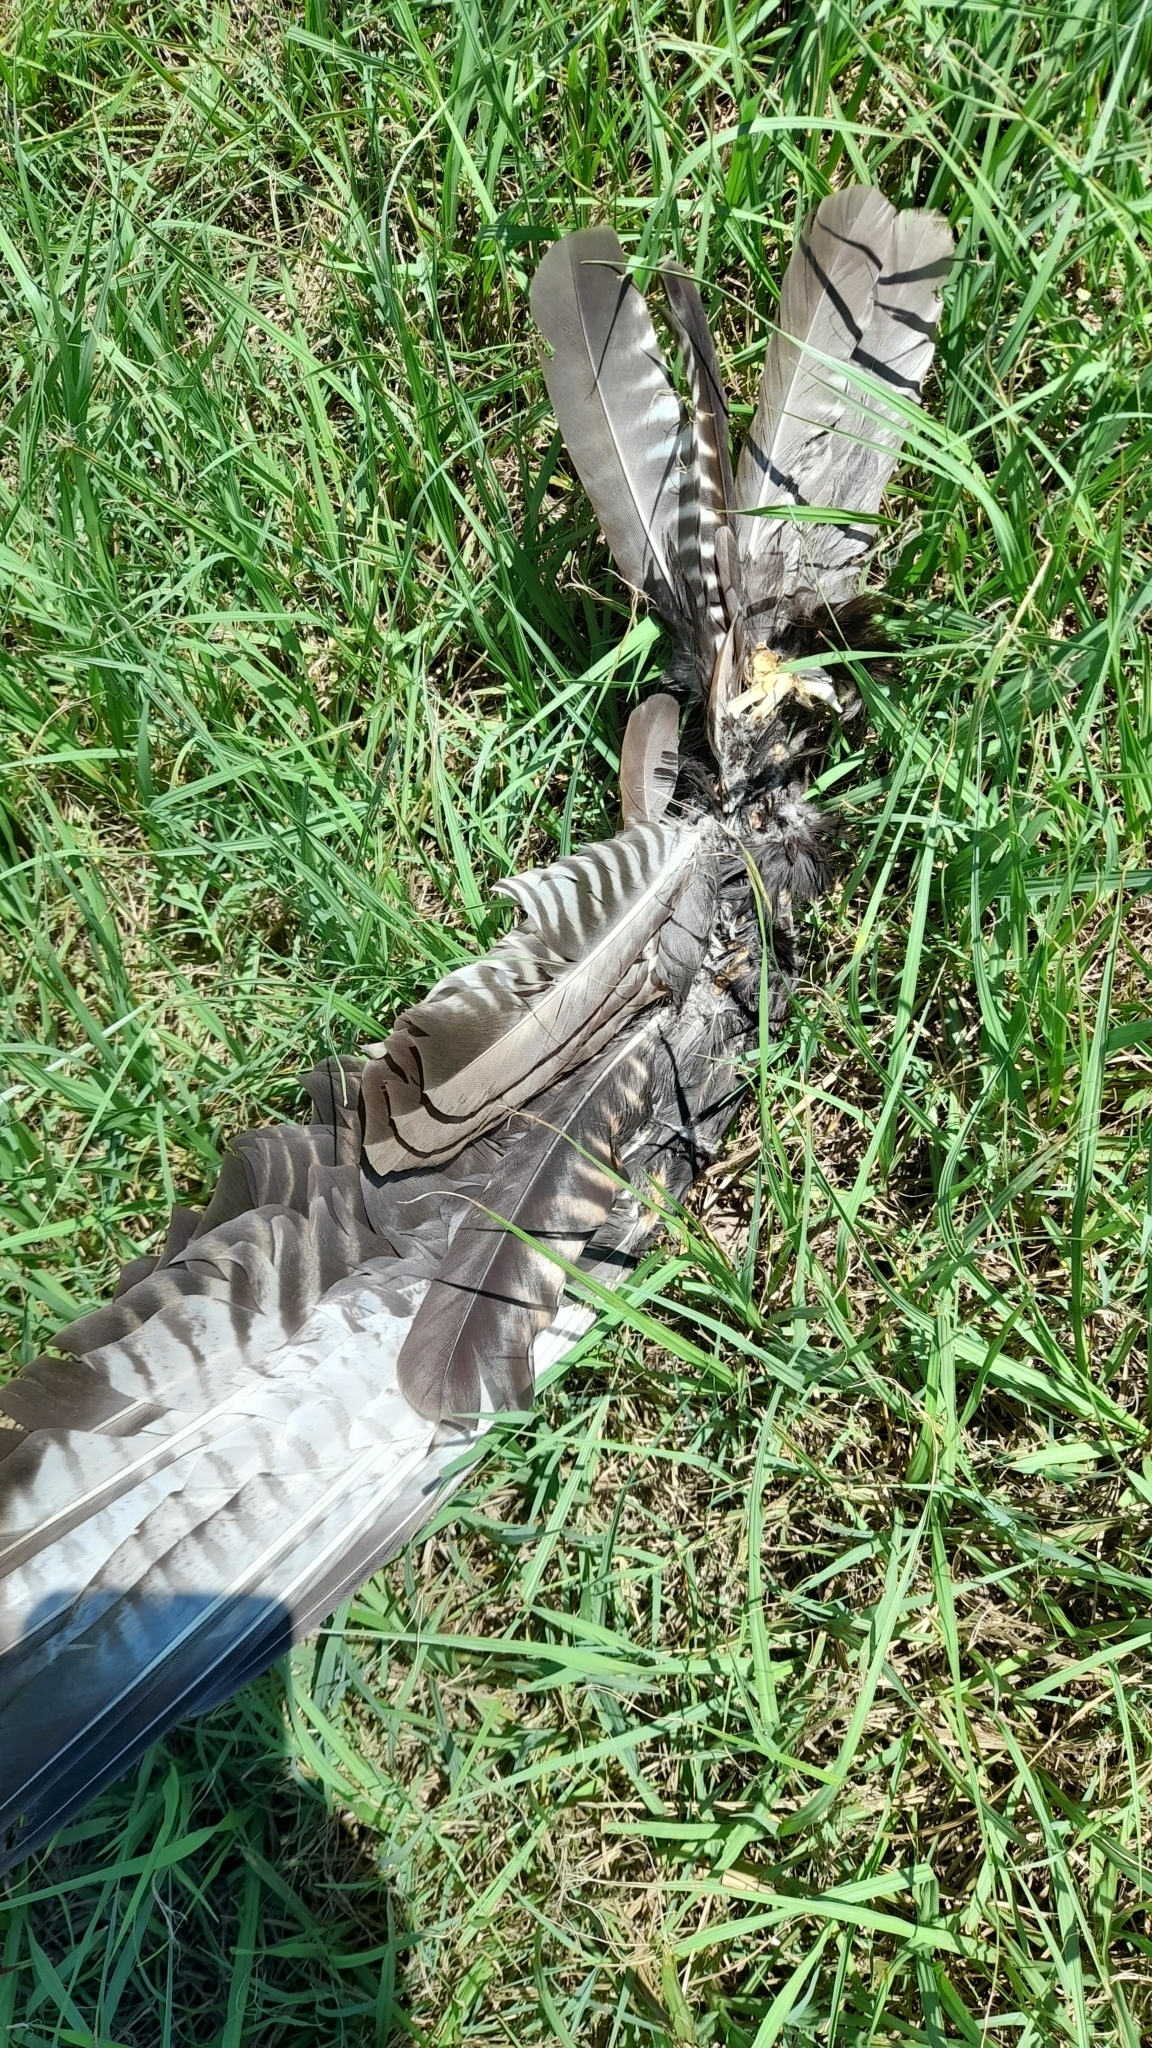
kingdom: Animalia
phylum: Chordata
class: Aves
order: Falconiformes
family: Falconidae
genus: Caracara
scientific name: Caracara plancus
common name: Southern caracara
